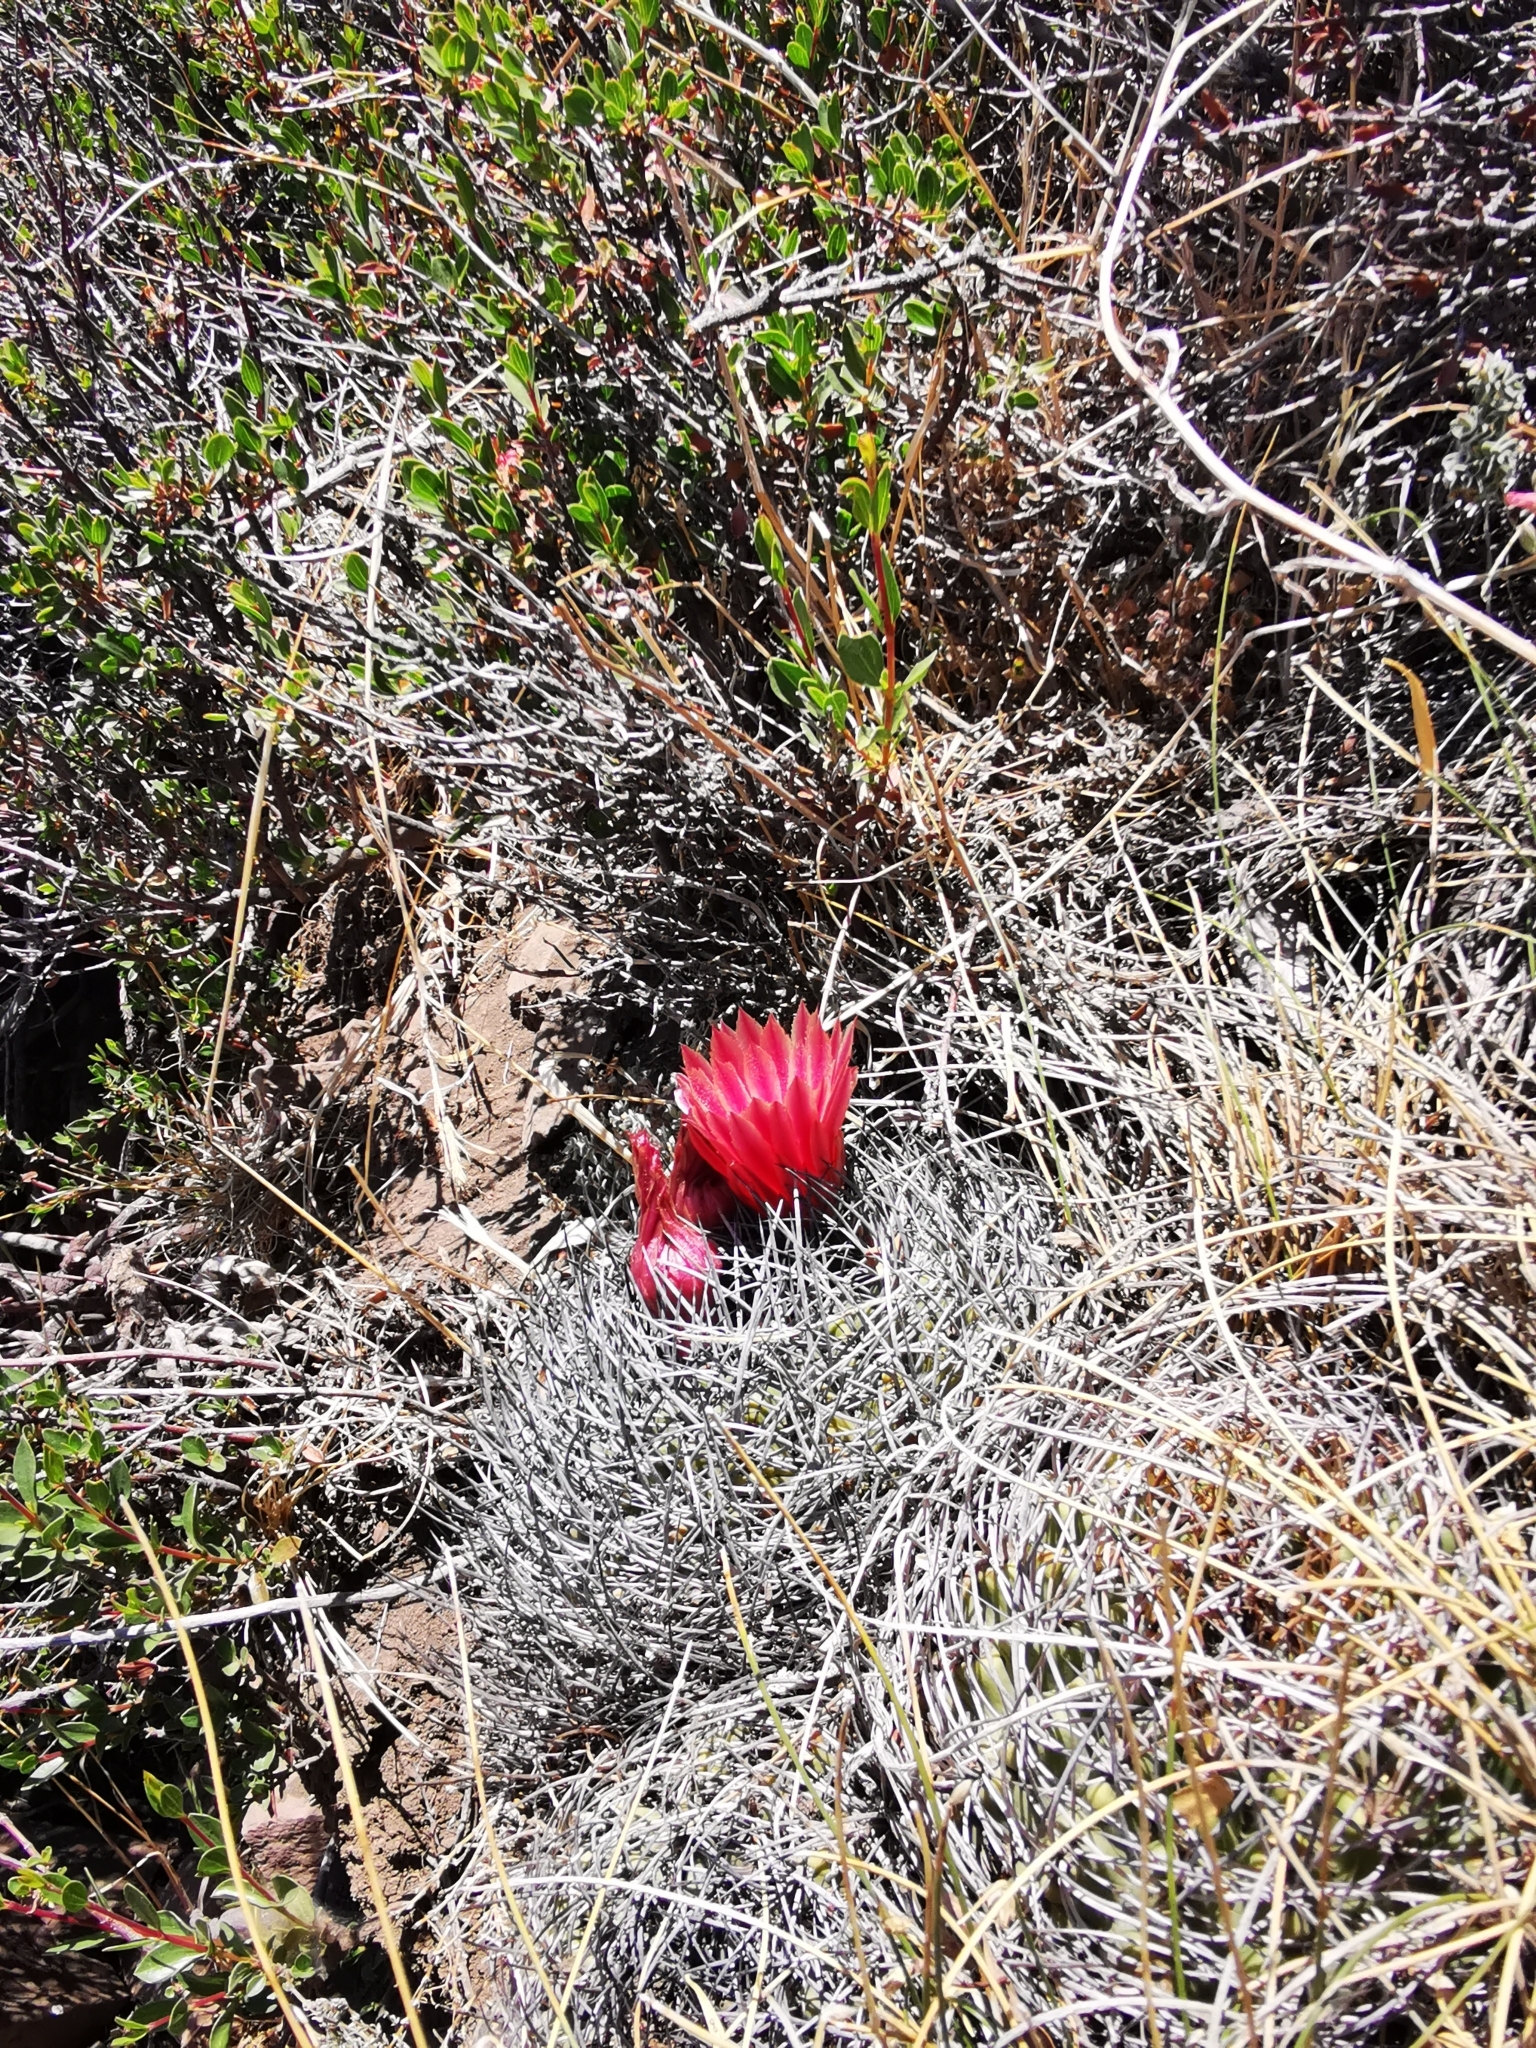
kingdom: Plantae
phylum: Tracheophyta
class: Magnoliopsida
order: Caryophyllales
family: Cactaceae
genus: Eriosyce
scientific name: Eriosyce curvispina
